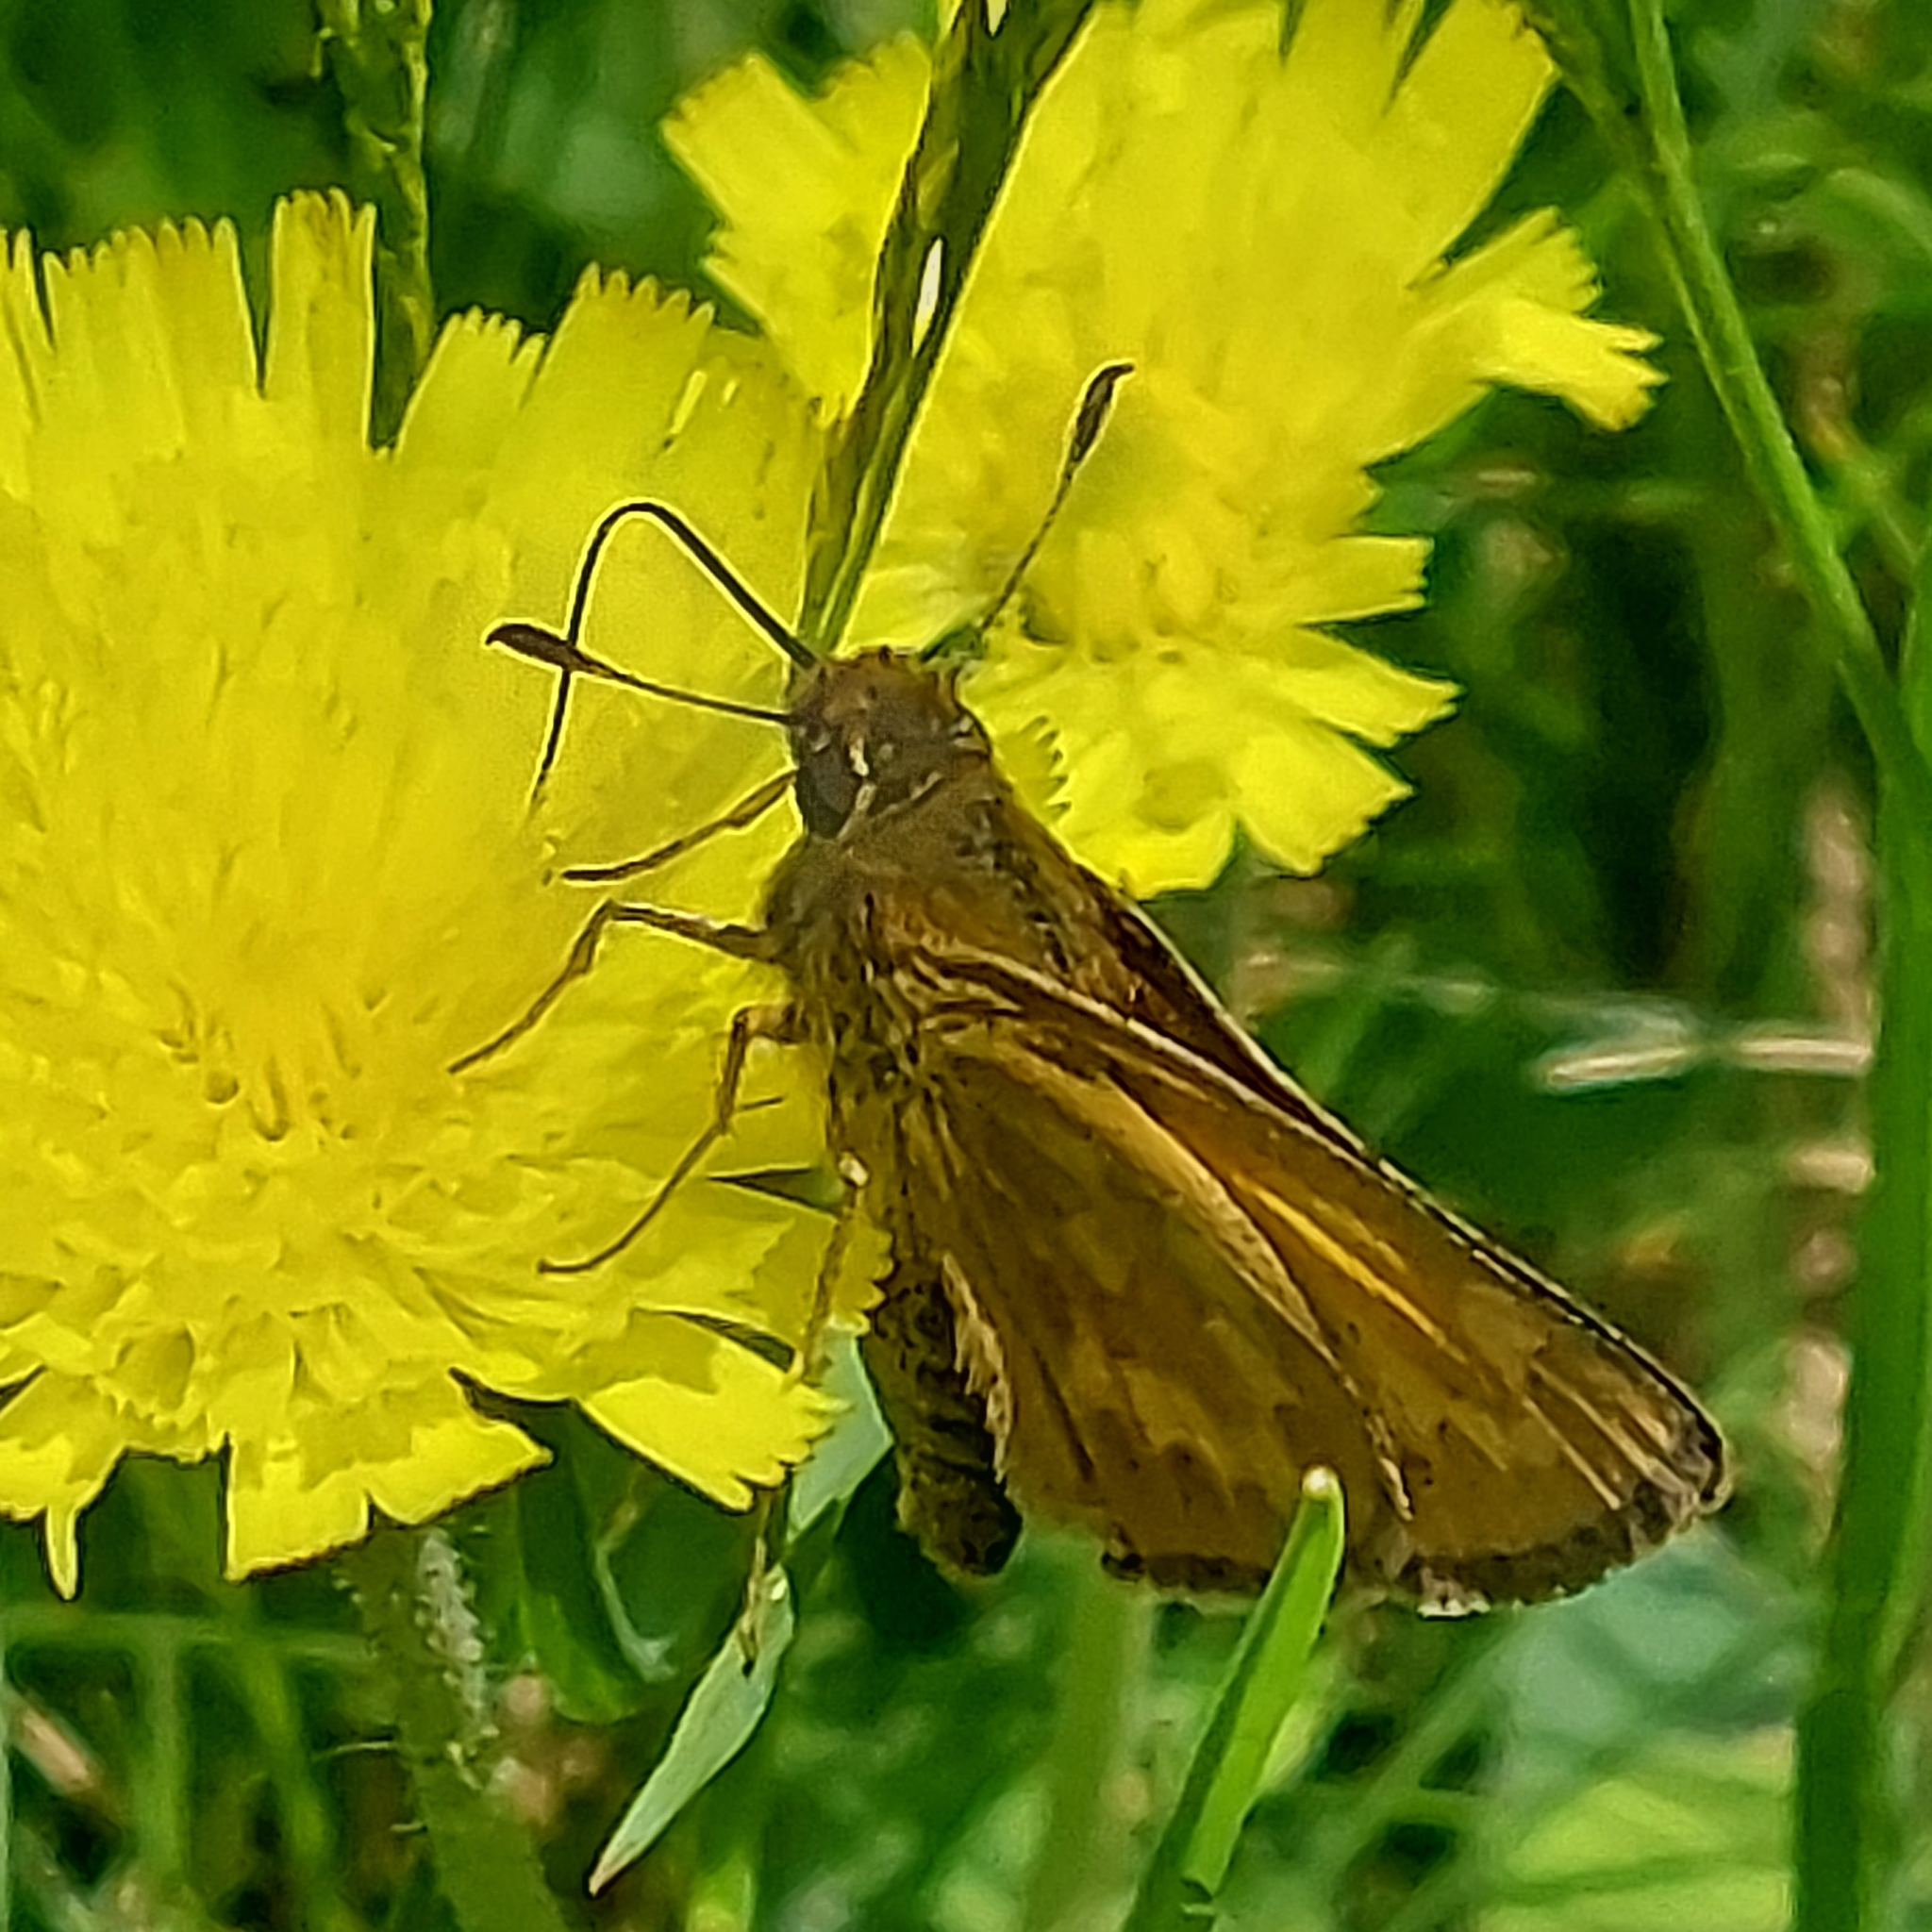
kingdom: Animalia
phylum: Arthropoda
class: Insecta
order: Lepidoptera
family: Hesperiidae
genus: Hesperia
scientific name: Hesperia sassacus
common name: Indian skipper
